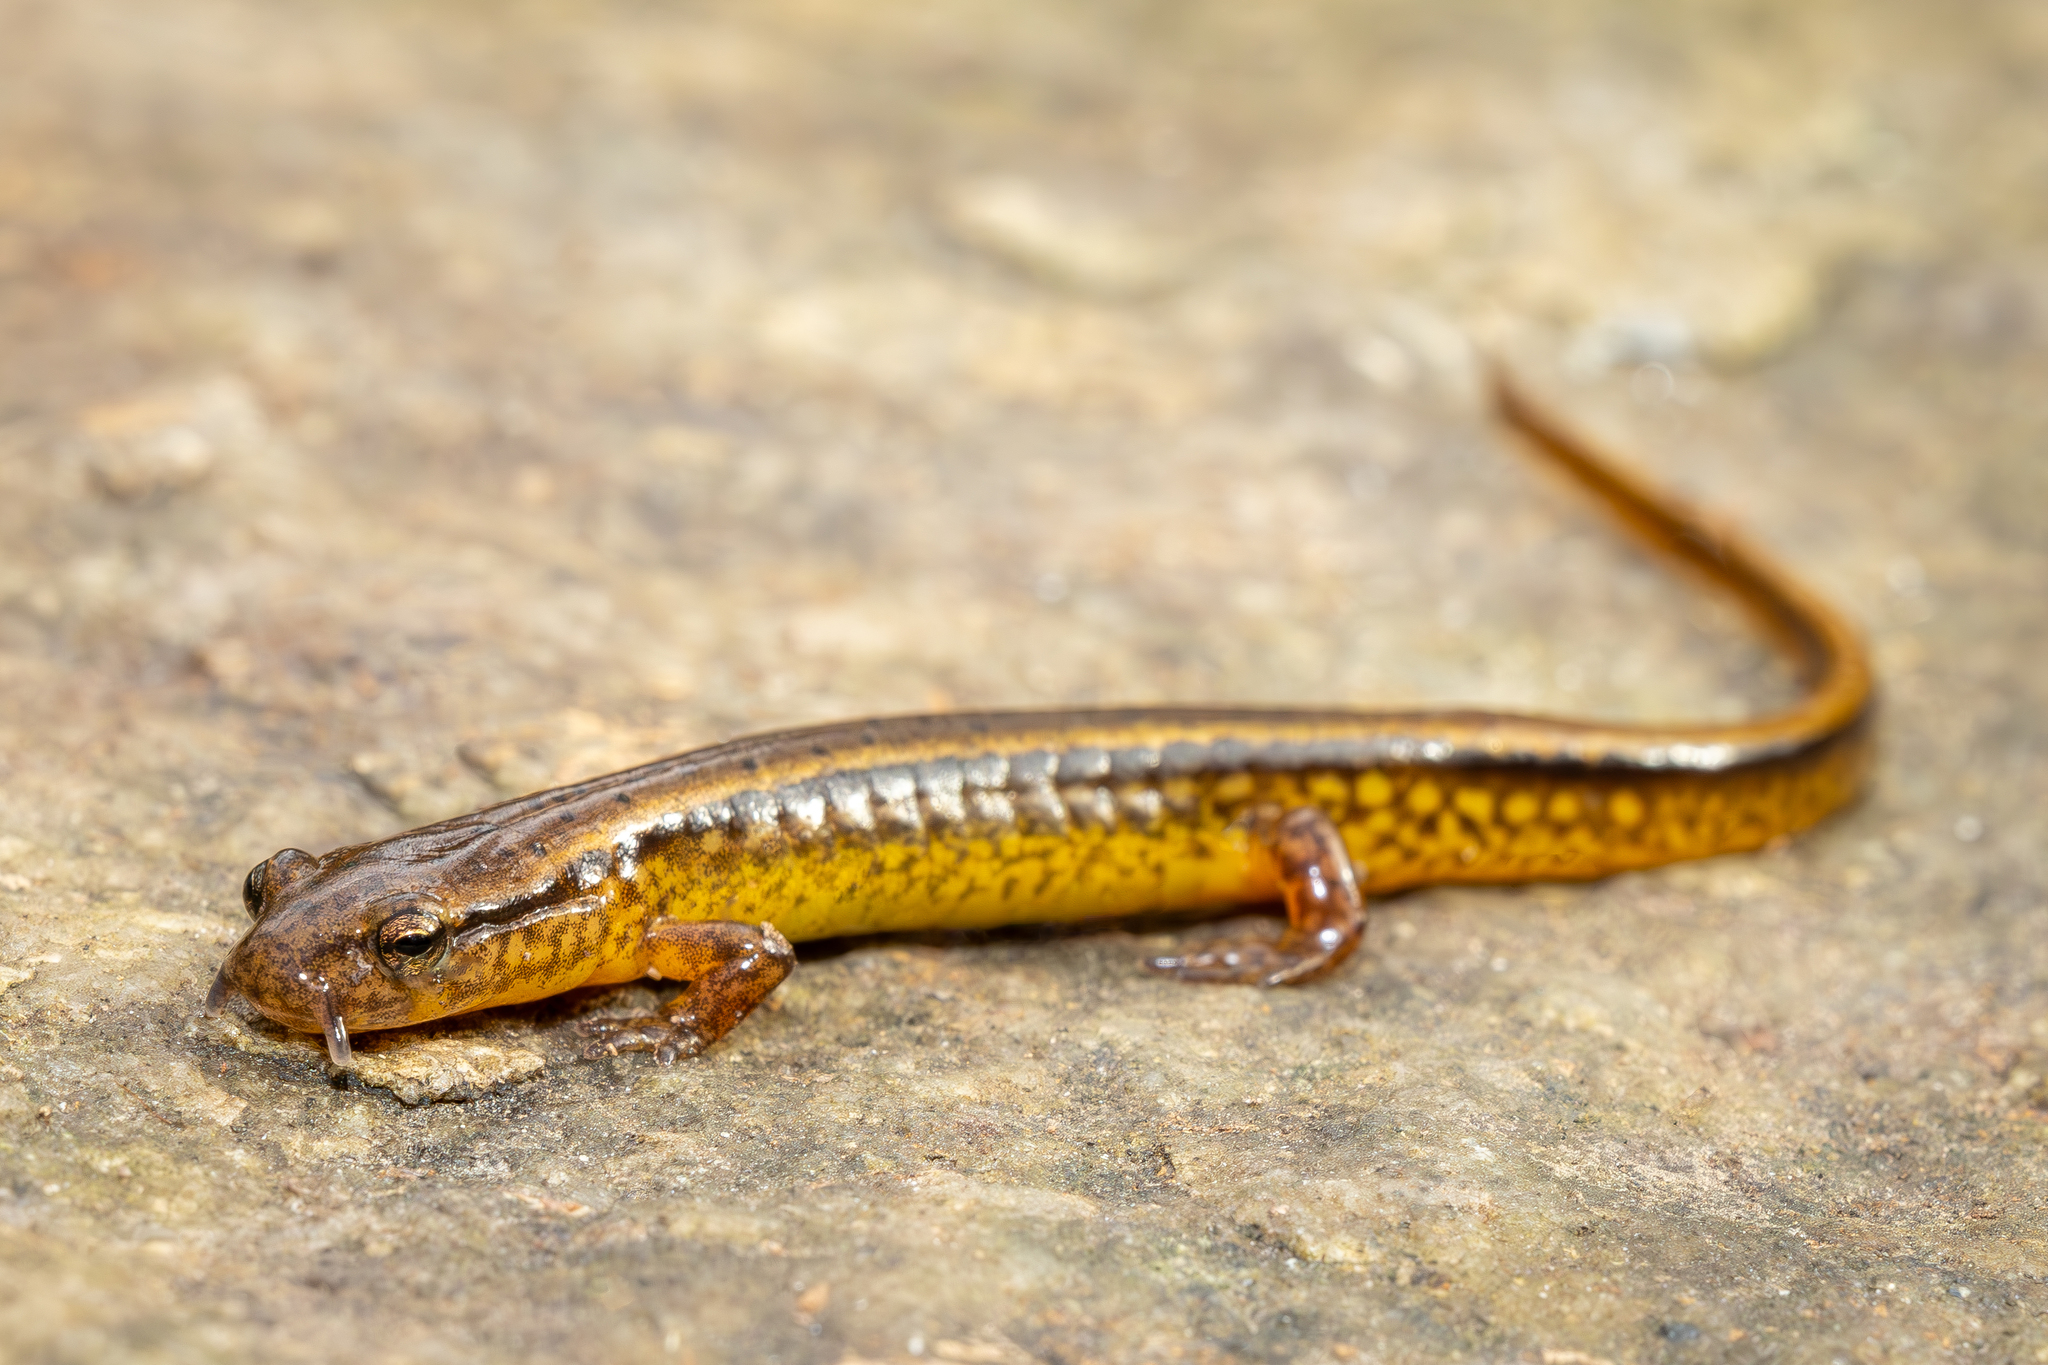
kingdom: Animalia
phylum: Chordata
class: Amphibia
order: Caudata
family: Plethodontidae
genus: Eurycea
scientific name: Eurycea cirrigera
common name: Southern two-lined salamander
